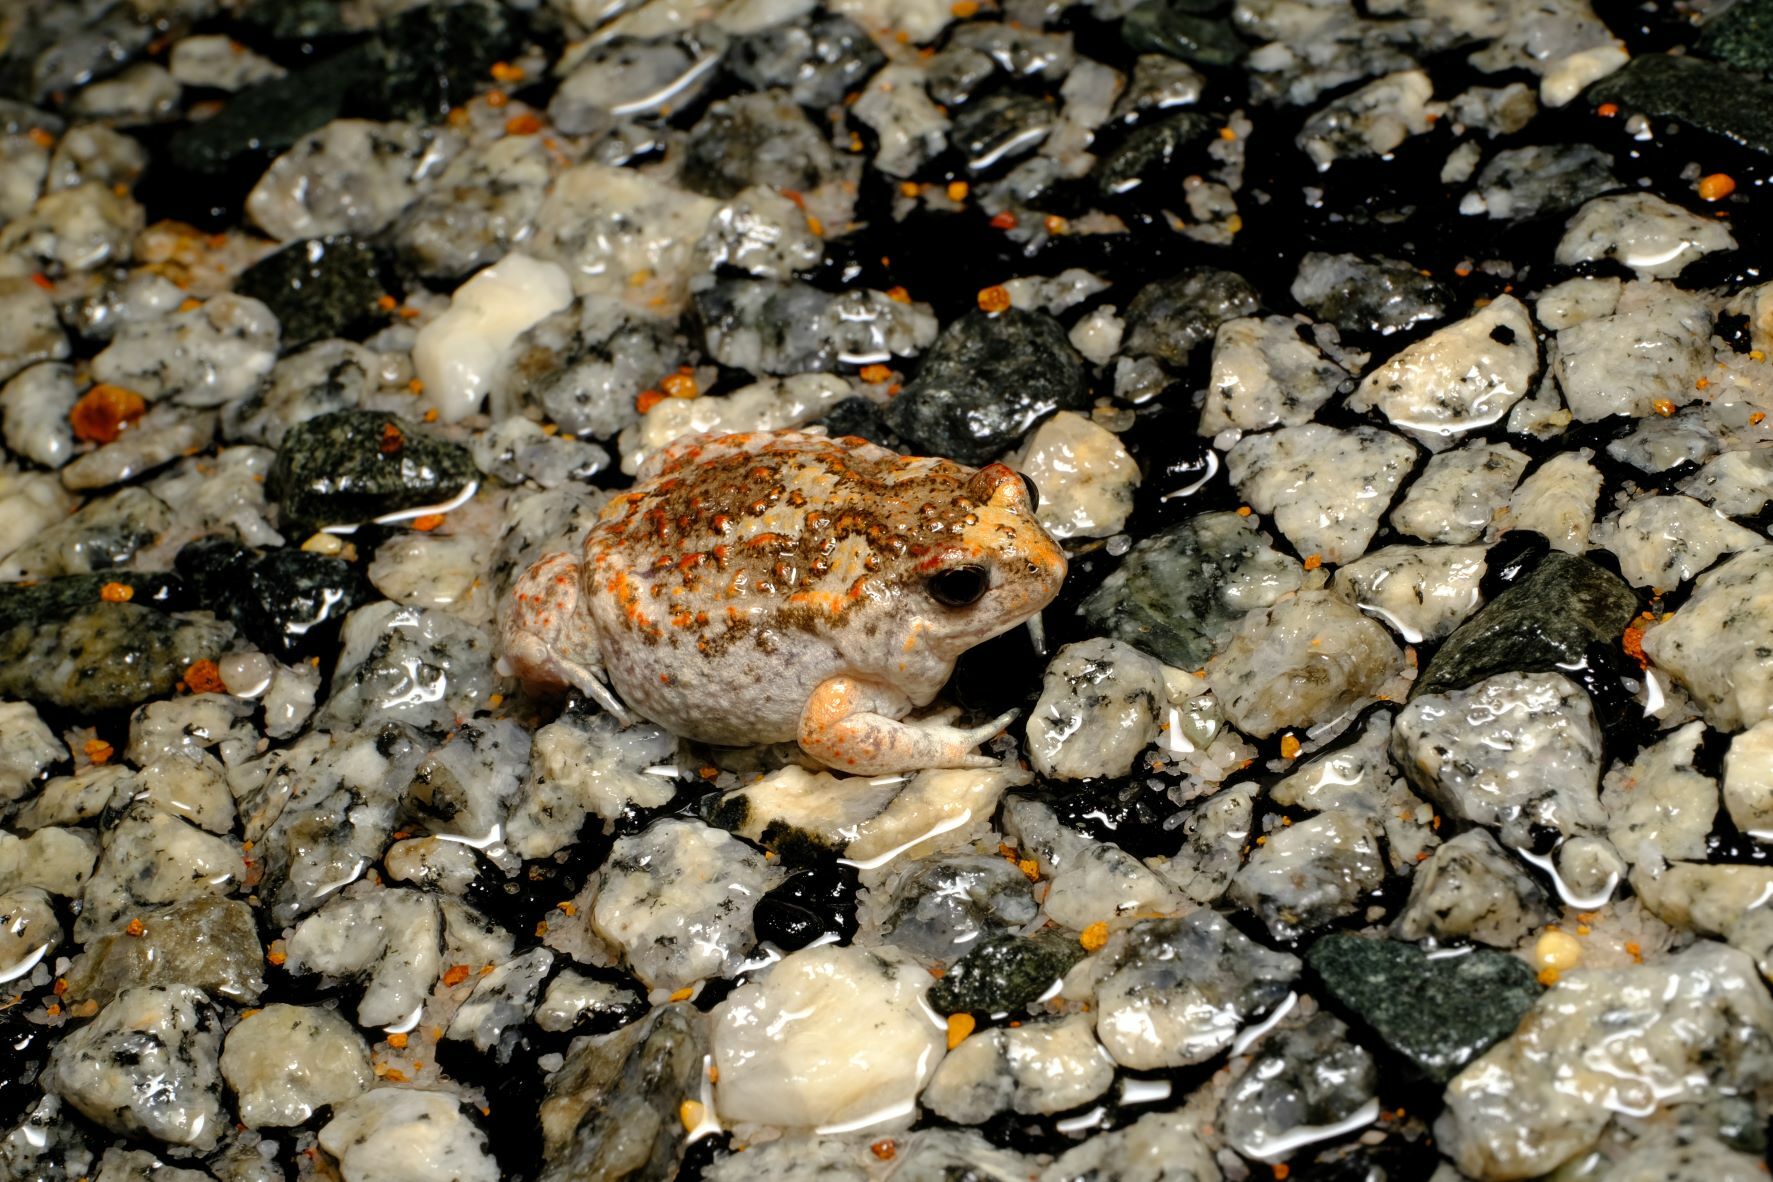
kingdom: Animalia
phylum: Chordata
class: Amphibia
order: Anura
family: Myobatrachidae
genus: Pseudophryne
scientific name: Pseudophryne guentheri
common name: Günther’s toadlet
